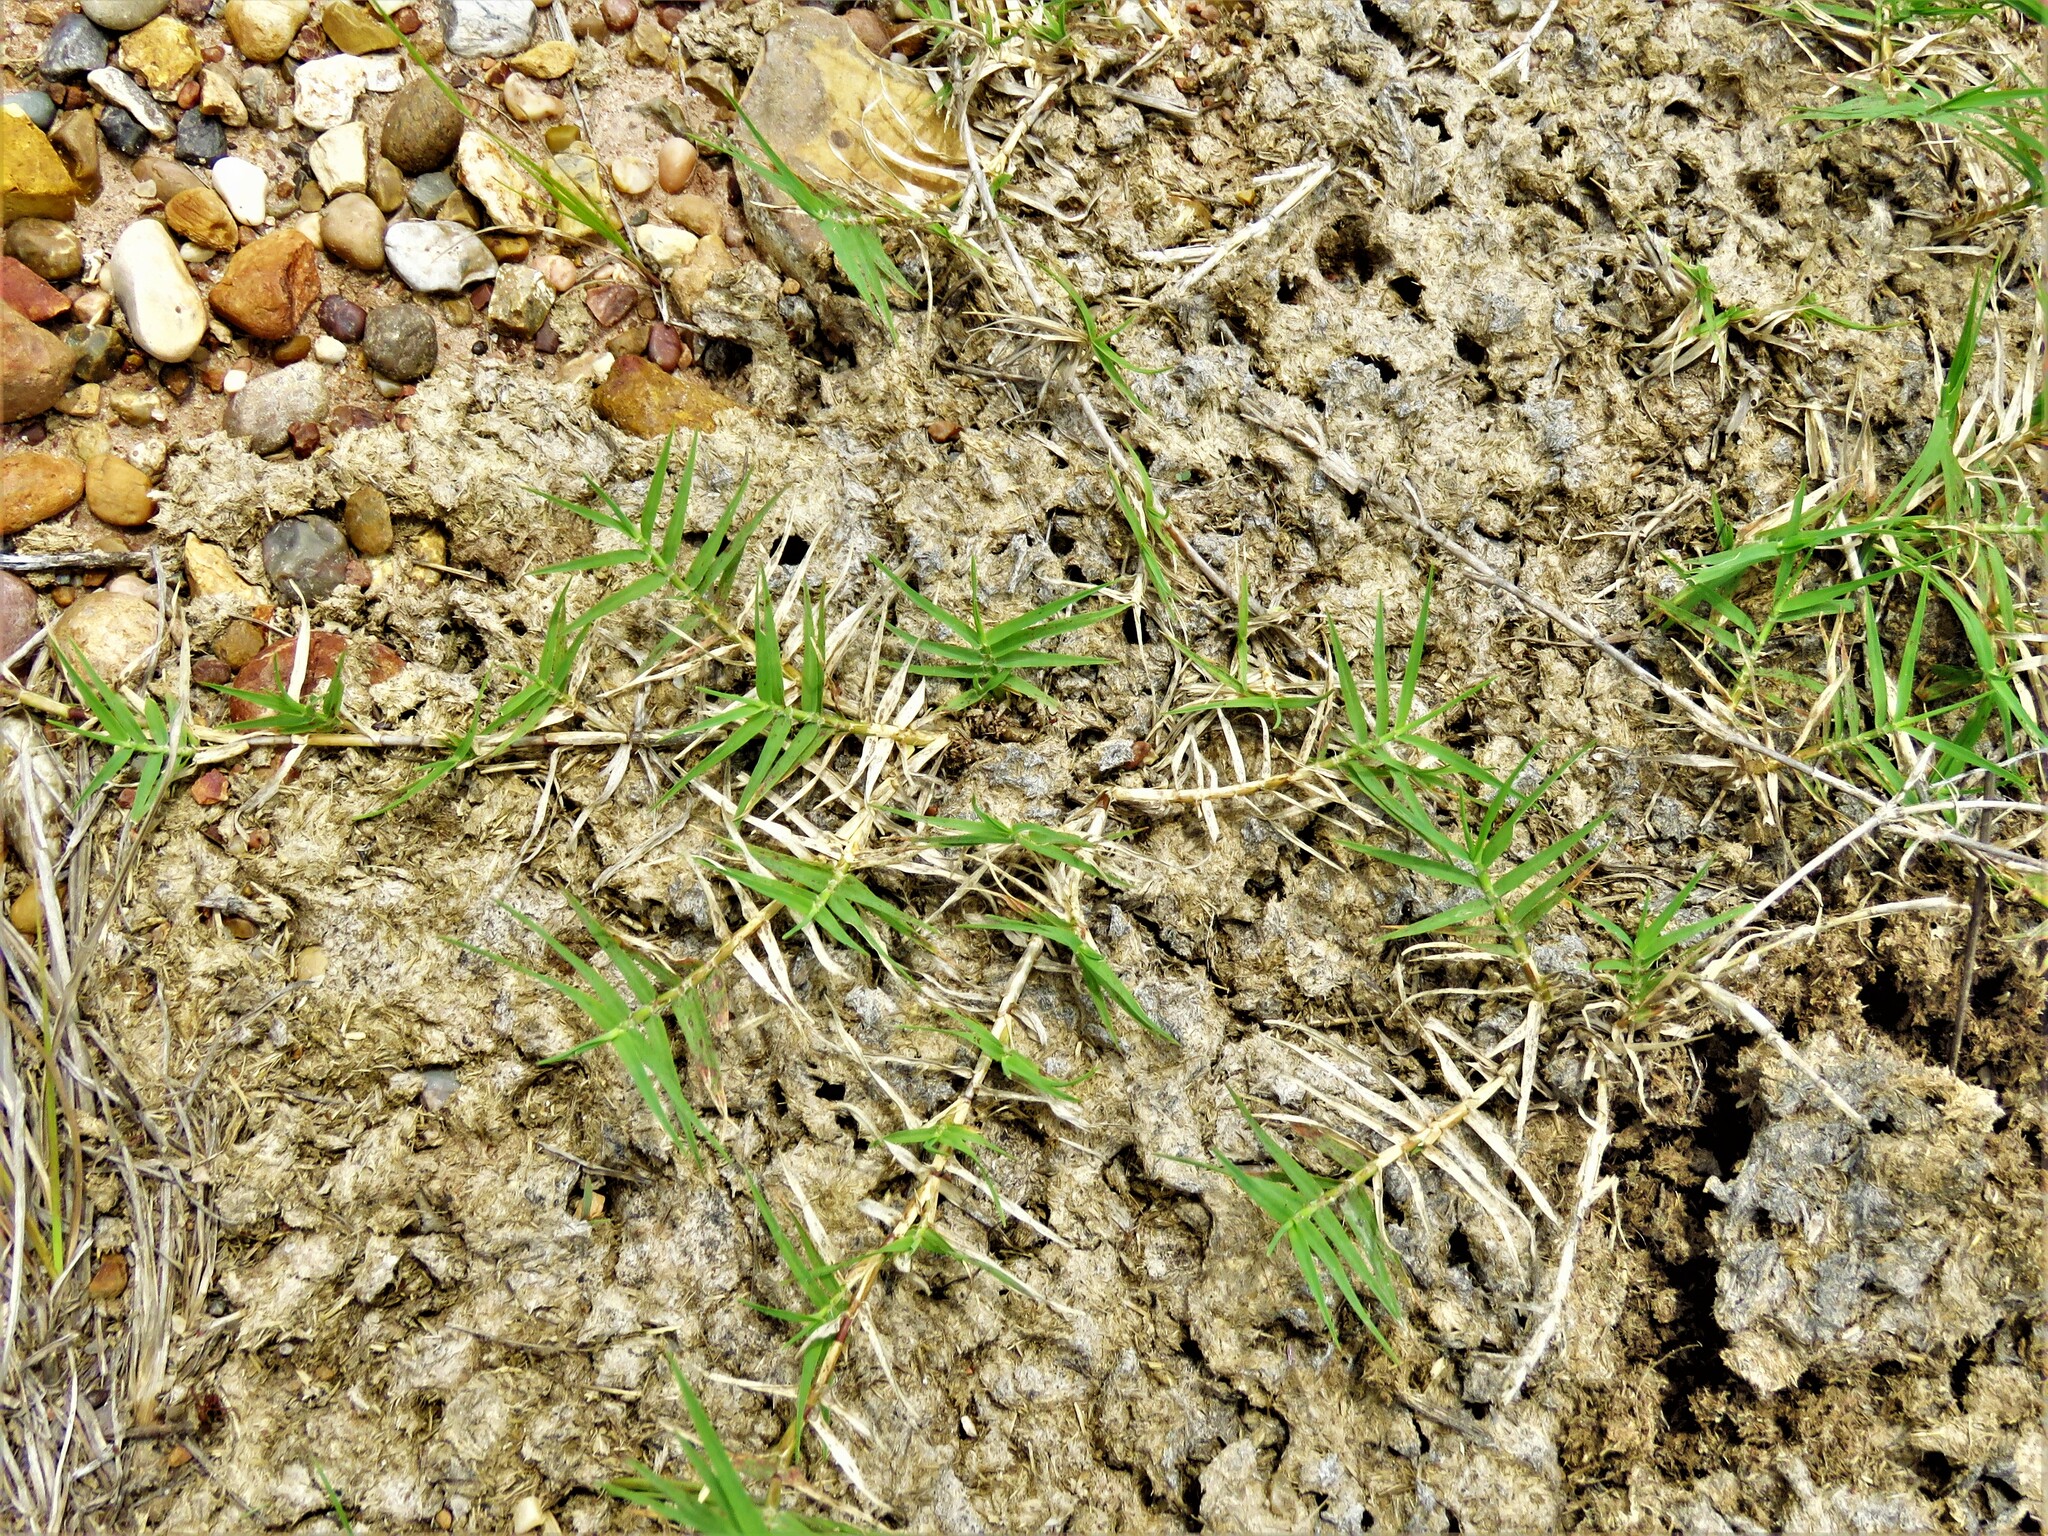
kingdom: Plantae
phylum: Tracheophyta
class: Liliopsida
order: Poales
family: Poaceae
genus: Cynodon
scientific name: Cynodon dactylon
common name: Bermuda grass
